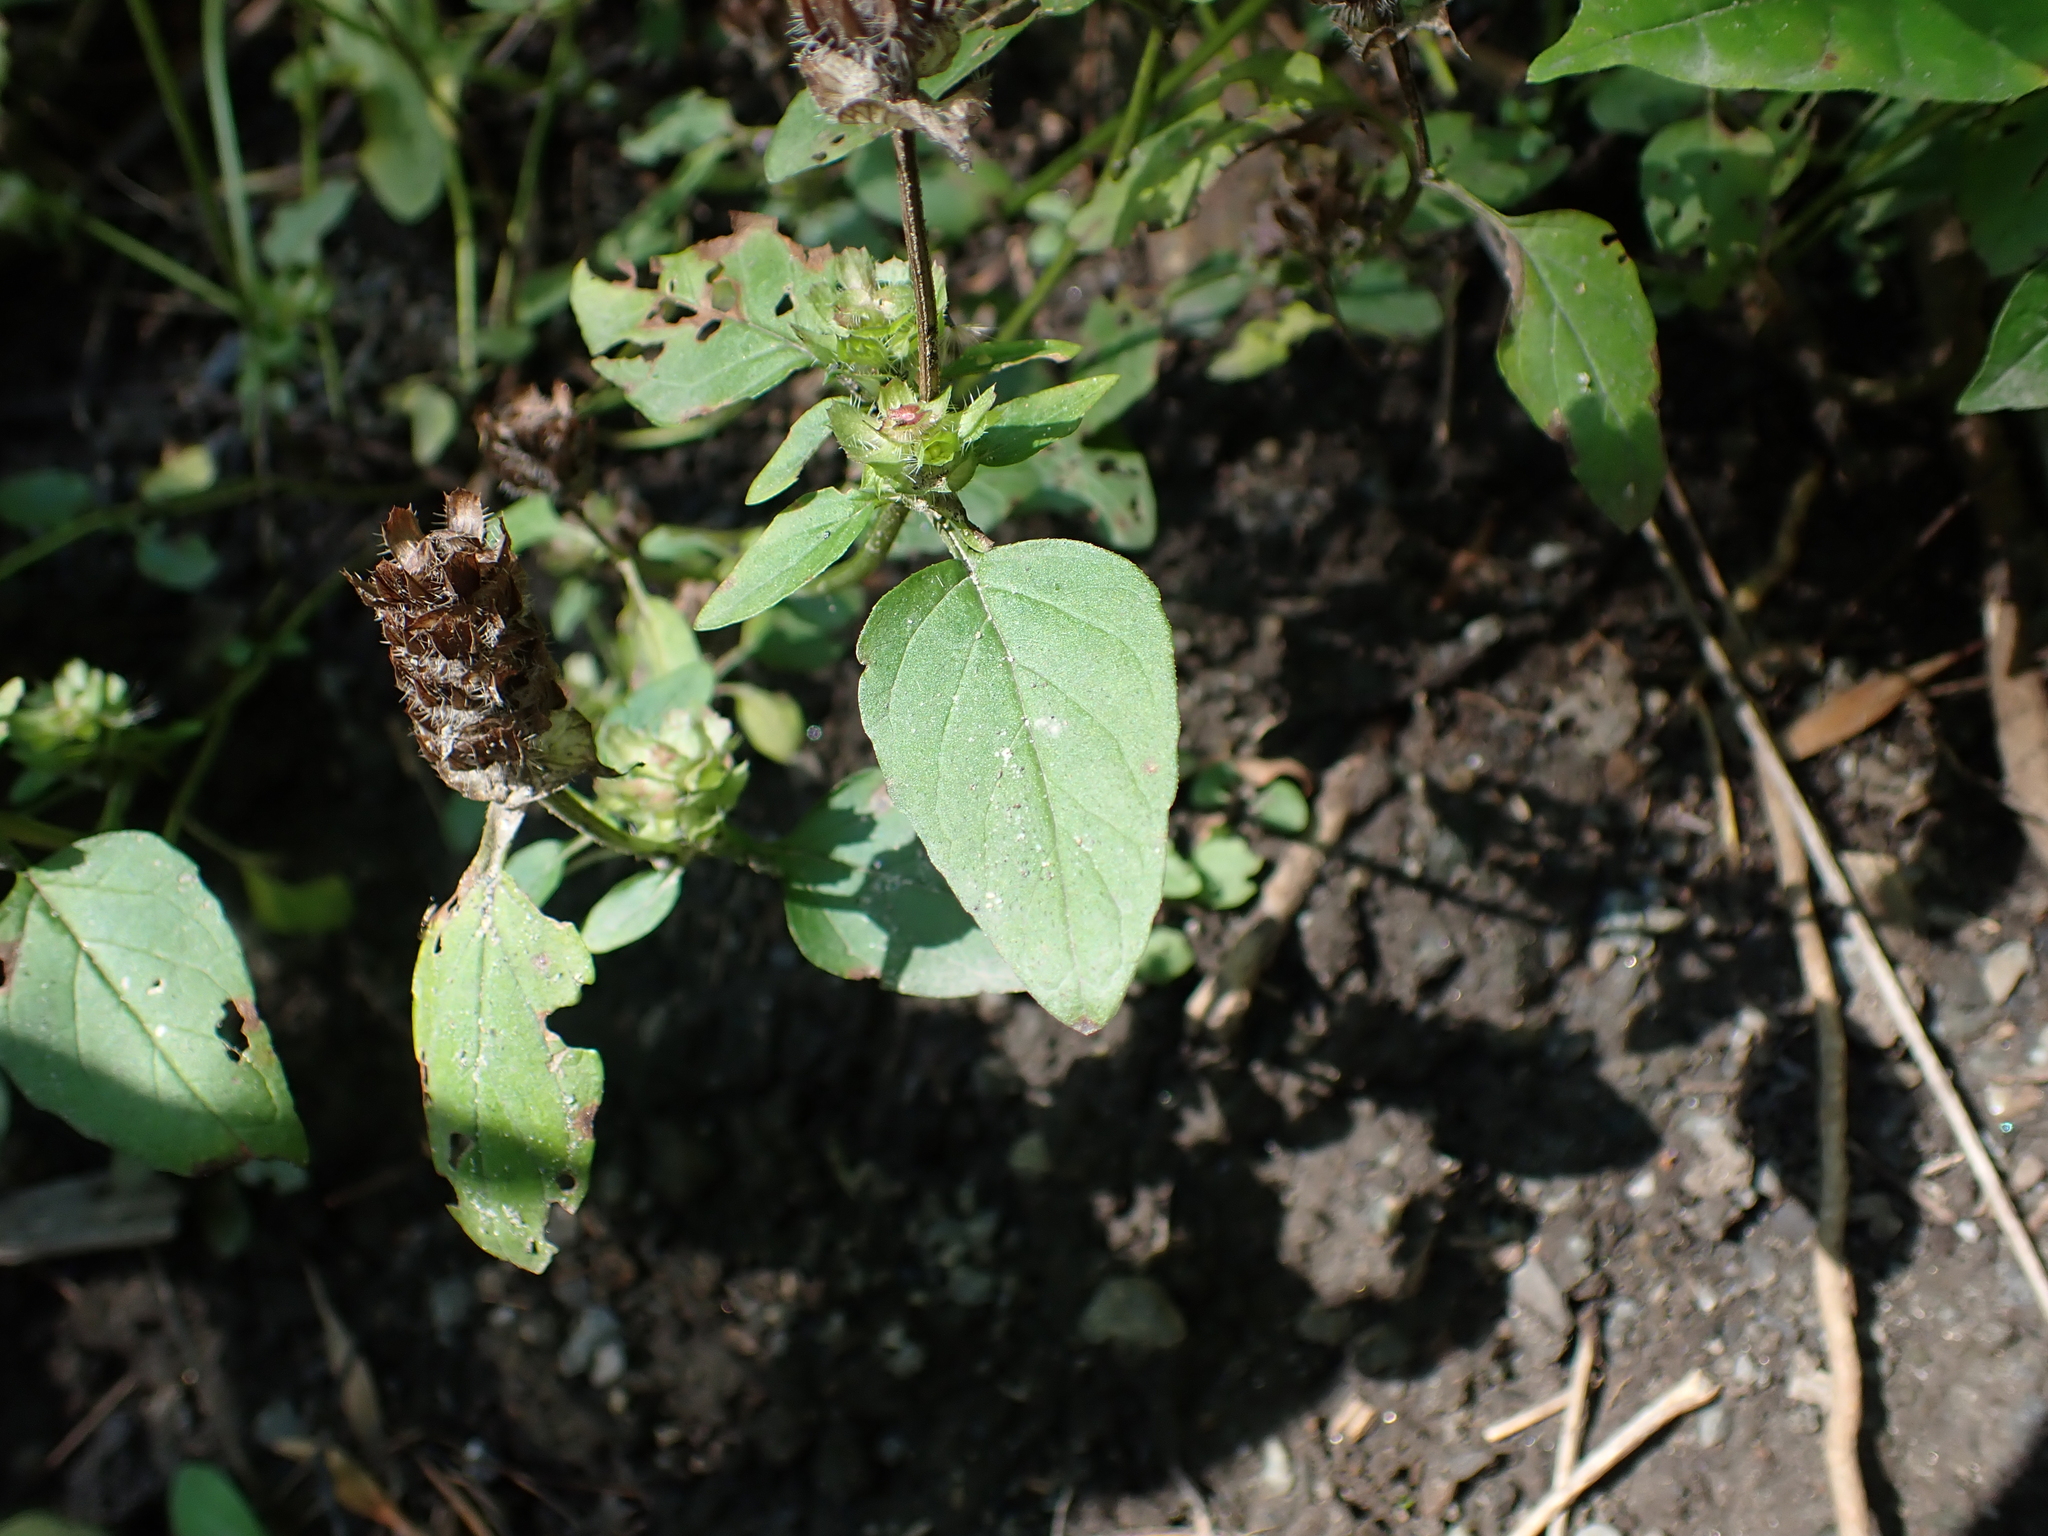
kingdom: Plantae
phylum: Tracheophyta
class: Magnoliopsida
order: Lamiales
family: Lamiaceae
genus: Prunella
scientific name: Prunella vulgaris
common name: Heal-all
